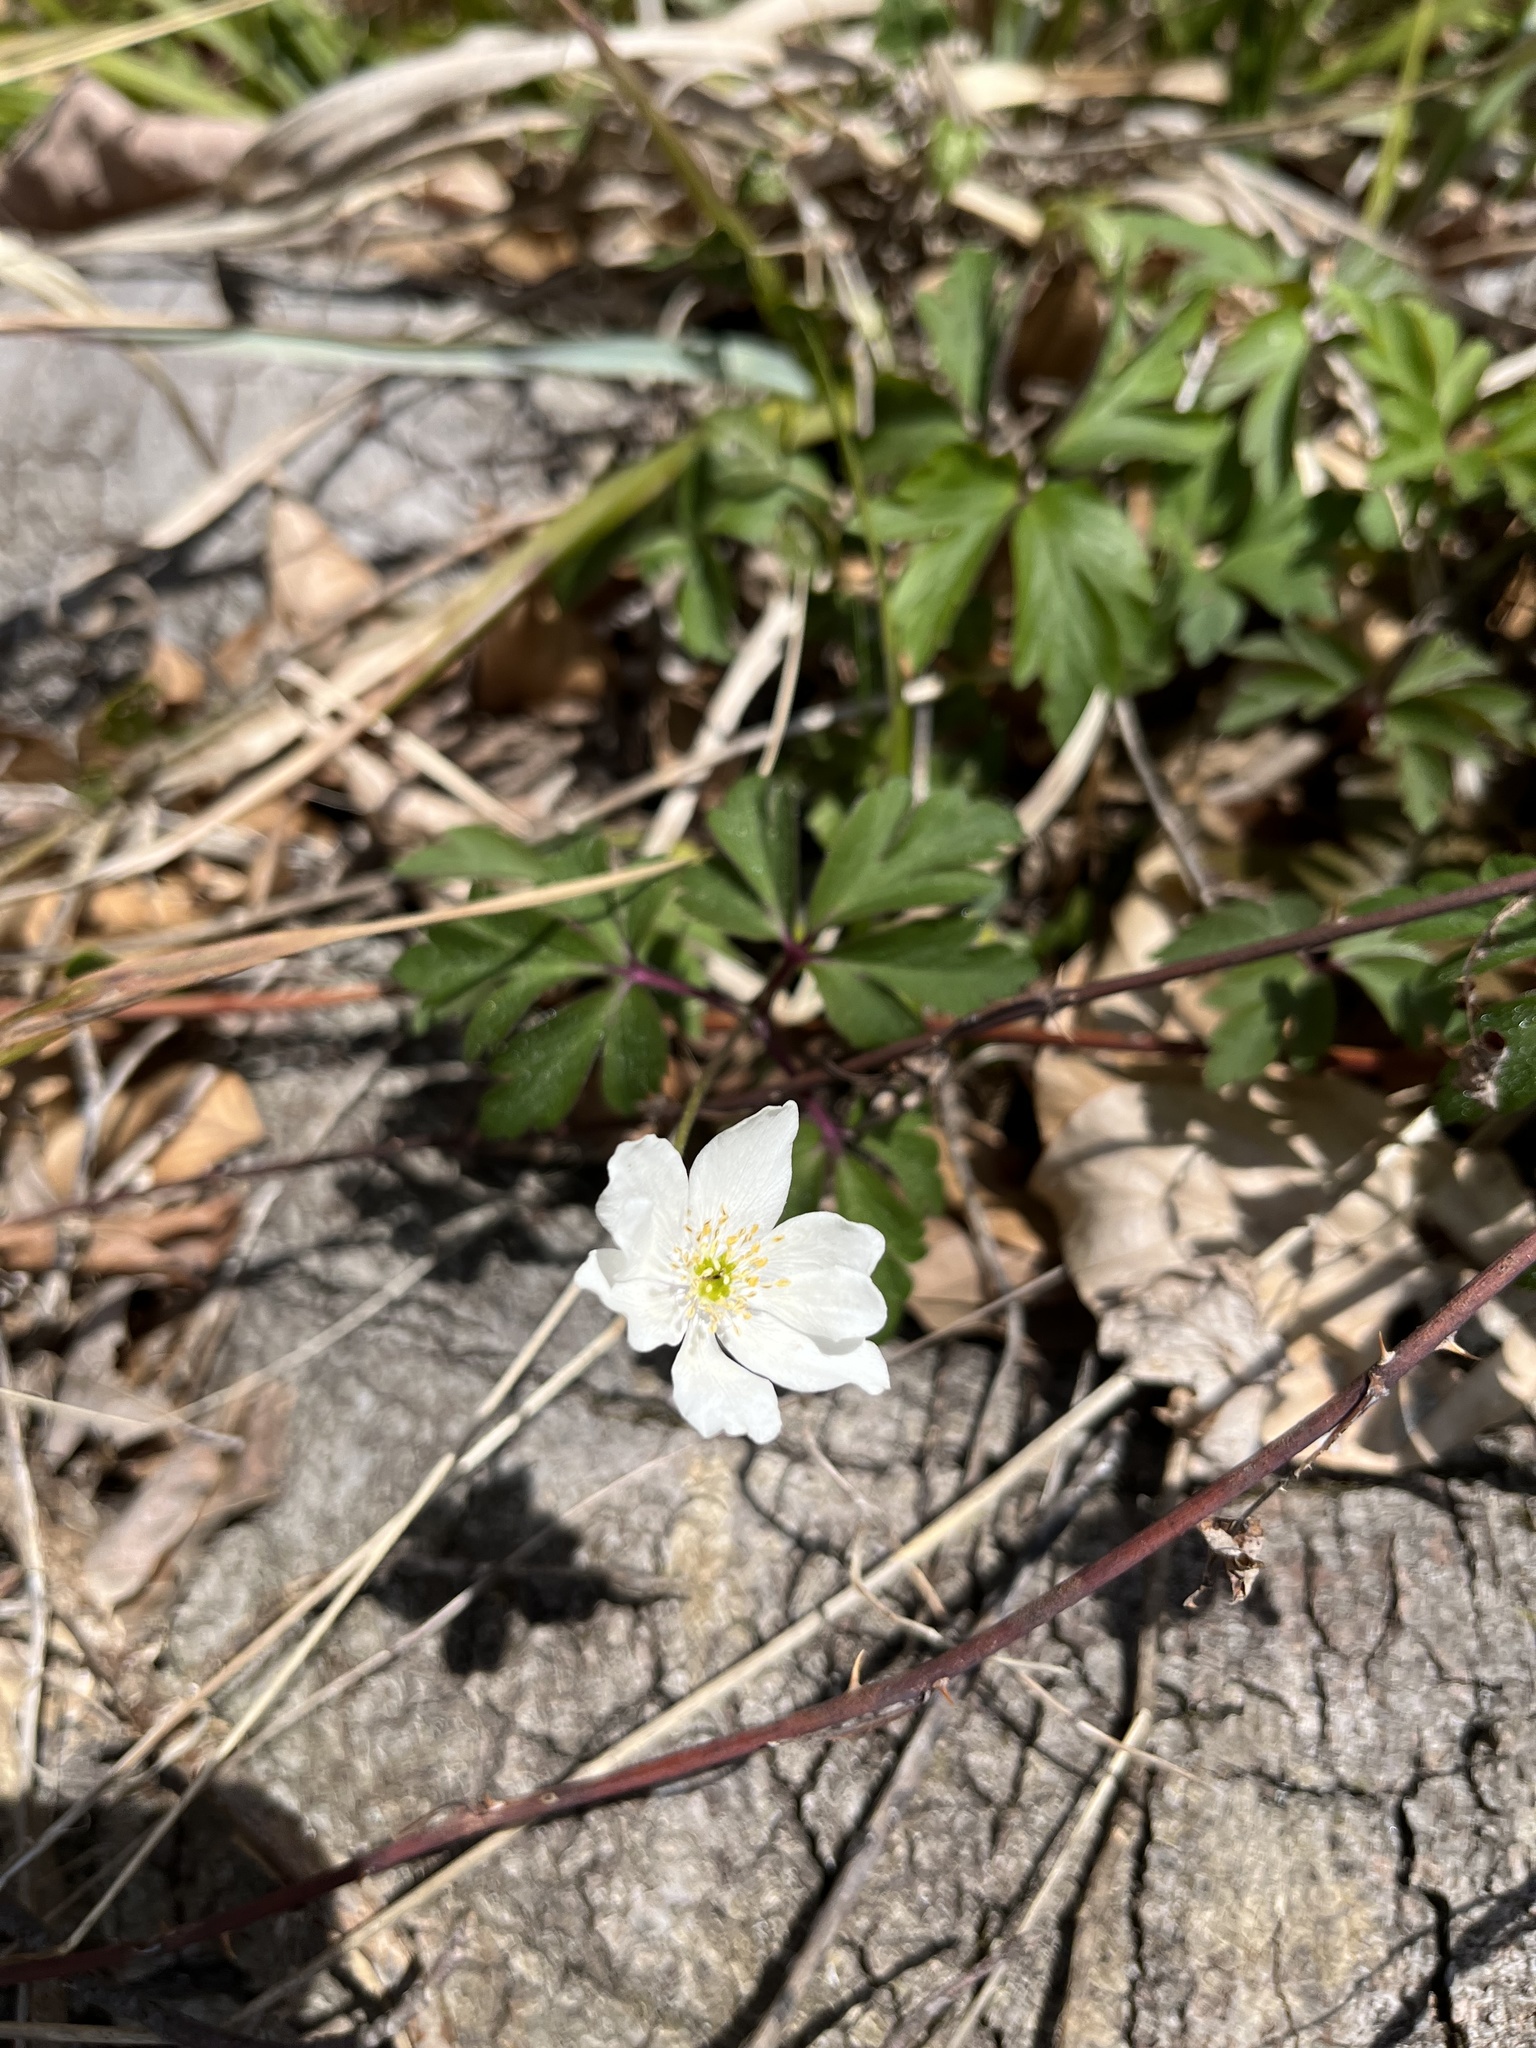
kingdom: Plantae
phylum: Tracheophyta
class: Magnoliopsida
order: Ranunculales
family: Ranunculaceae
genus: Anemone
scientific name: Anemone nemorosa
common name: Wood anemone
